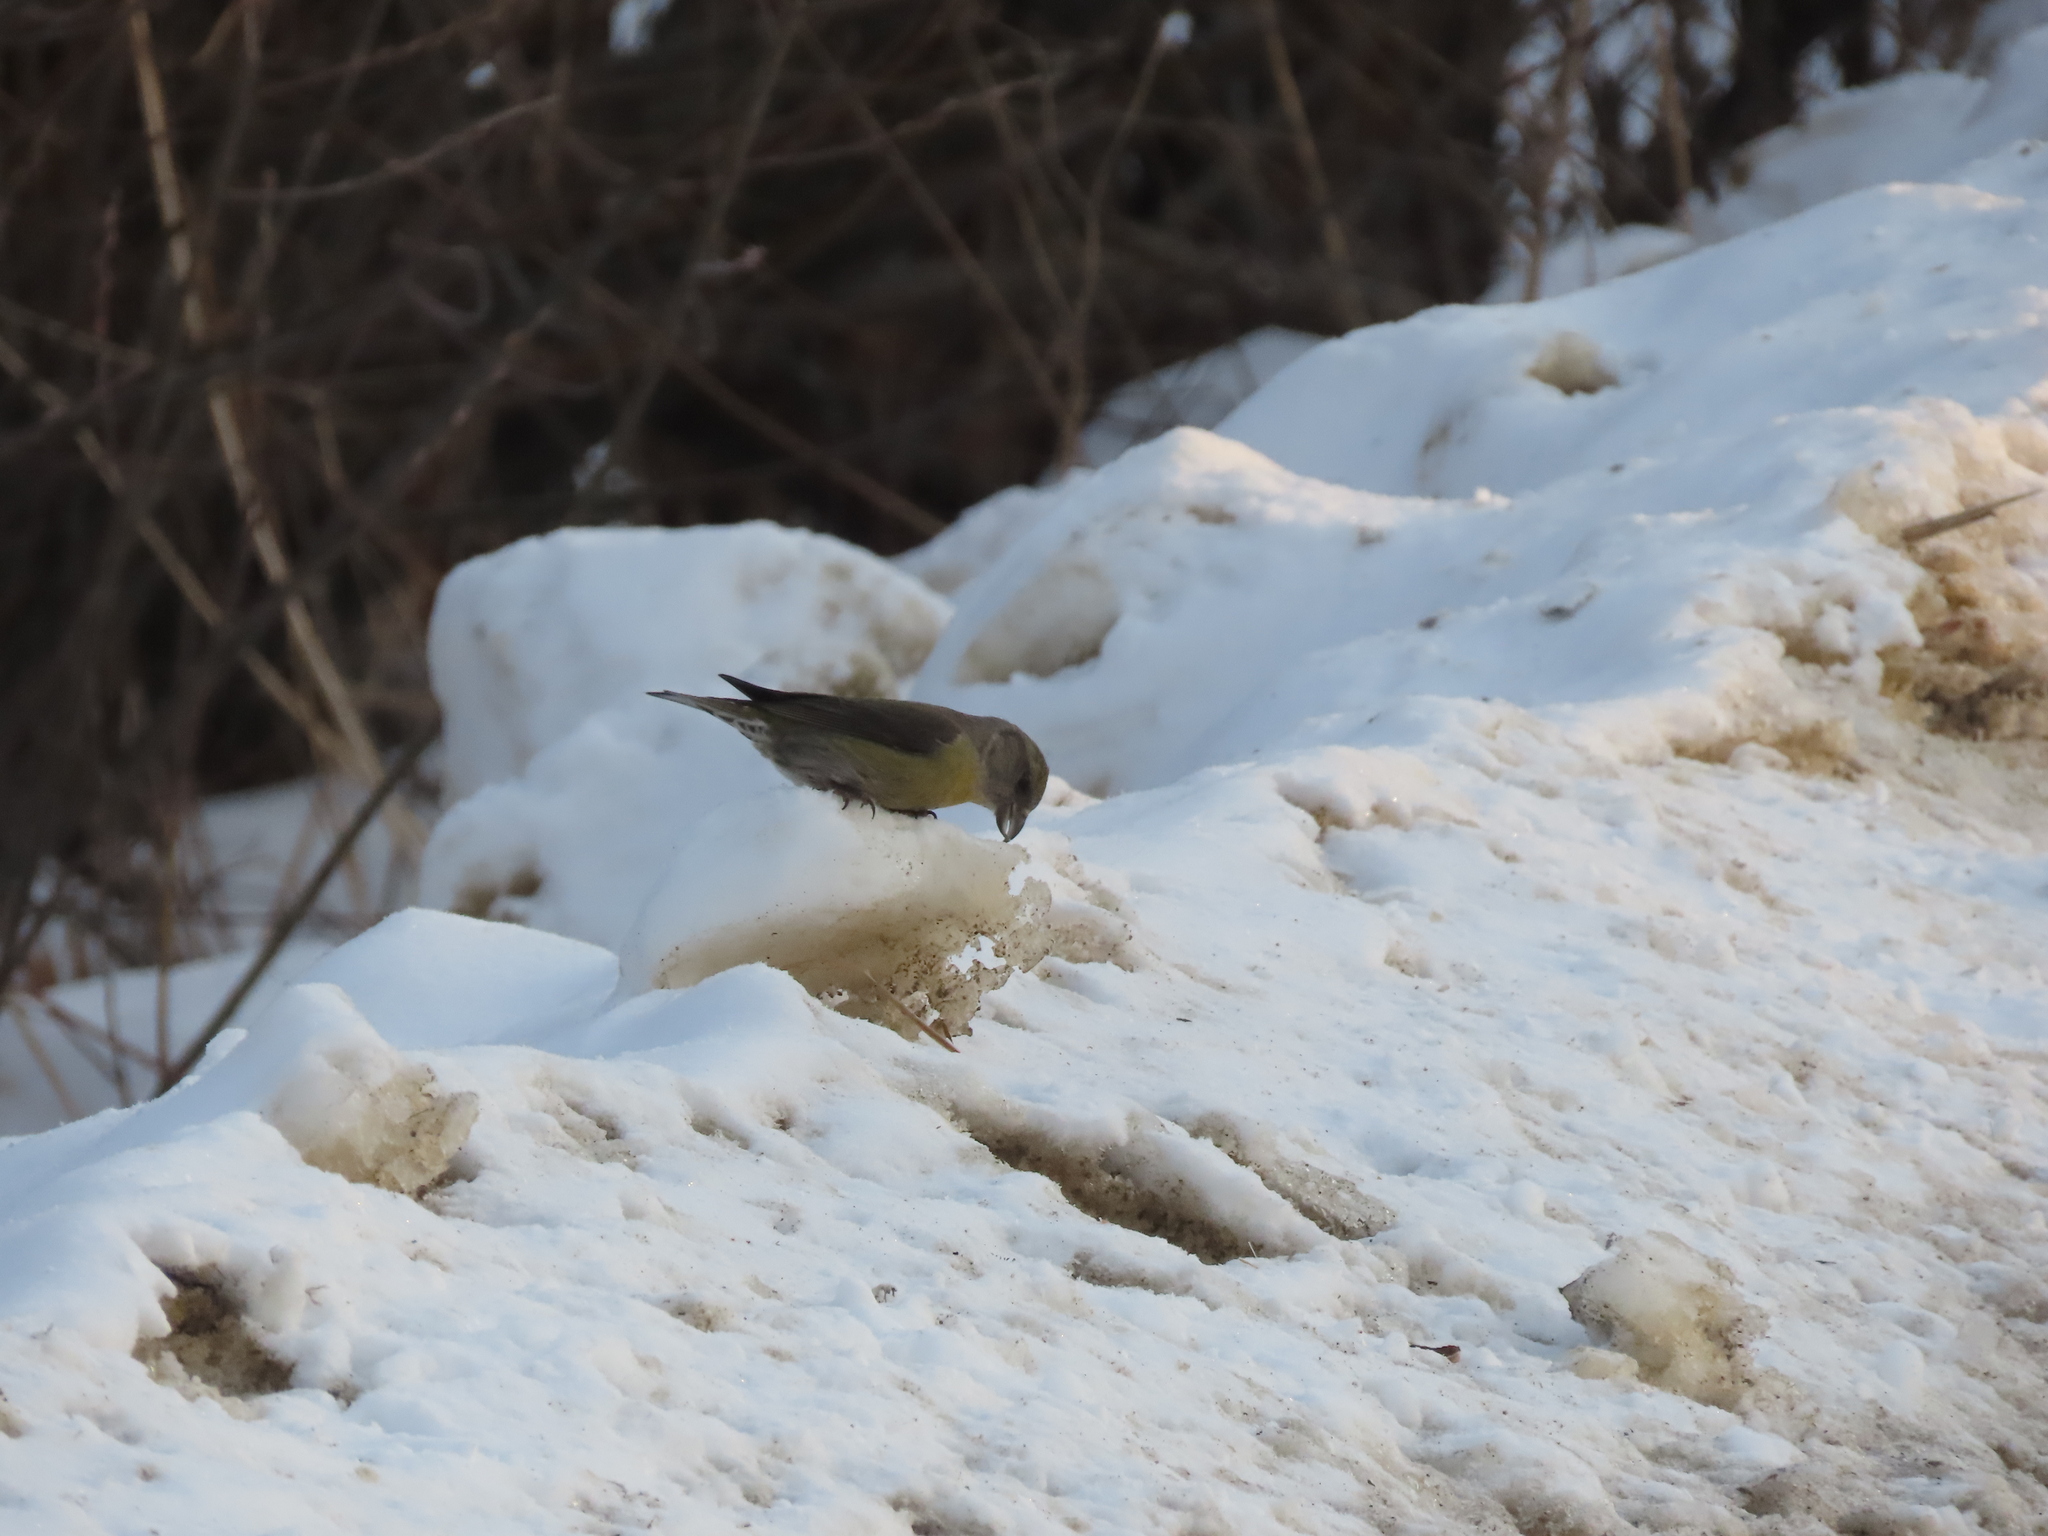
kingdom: Animalia
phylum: Chordata
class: Aves
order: Passeriformes
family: Fringillidae
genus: Loxia
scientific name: Loxia curvirostra
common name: Red crossbill
